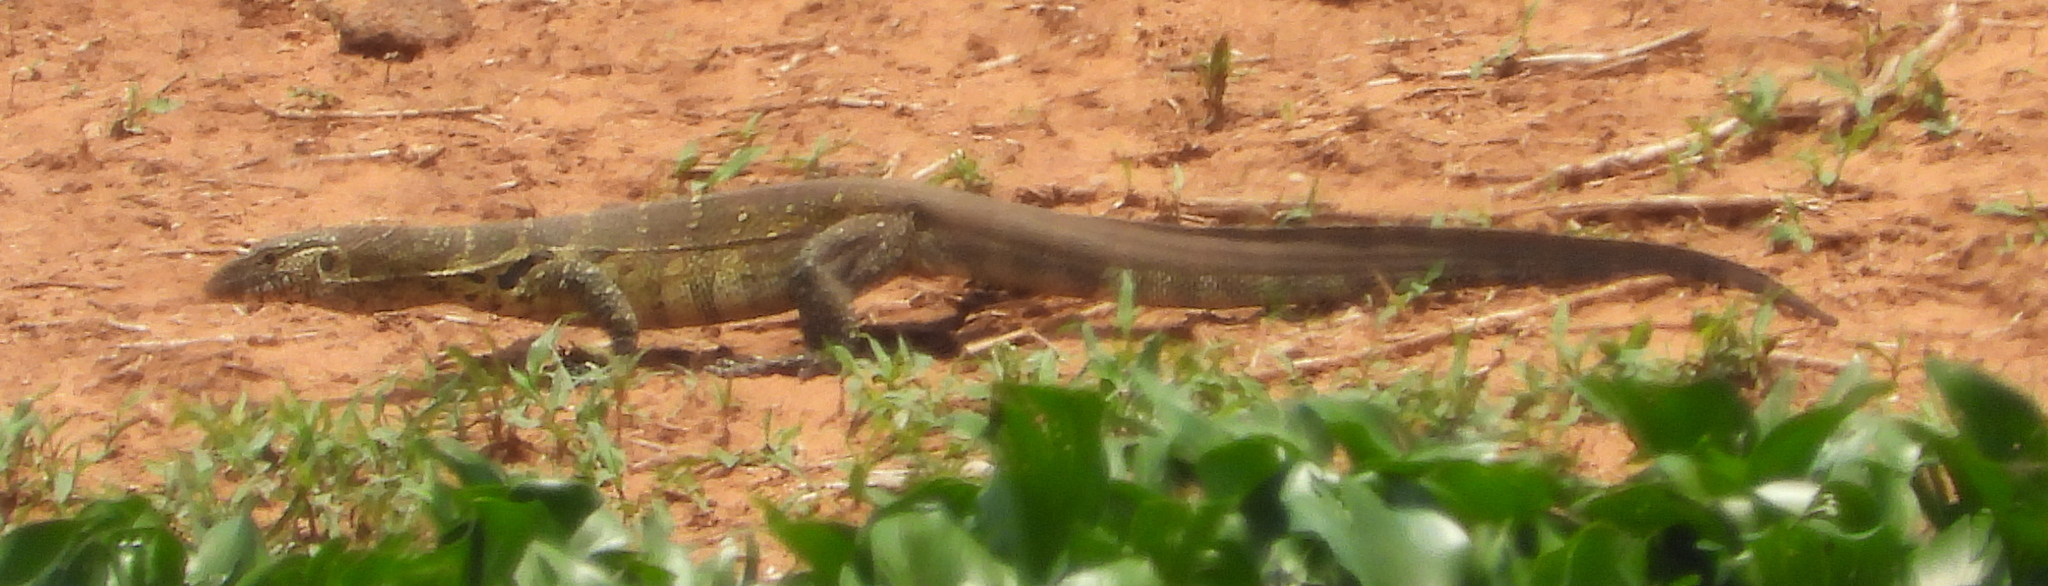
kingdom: Animalia
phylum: Chordata
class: Squamata
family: Varanidae
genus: Varanus
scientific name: Varanus niloticus
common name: Nile monitor
